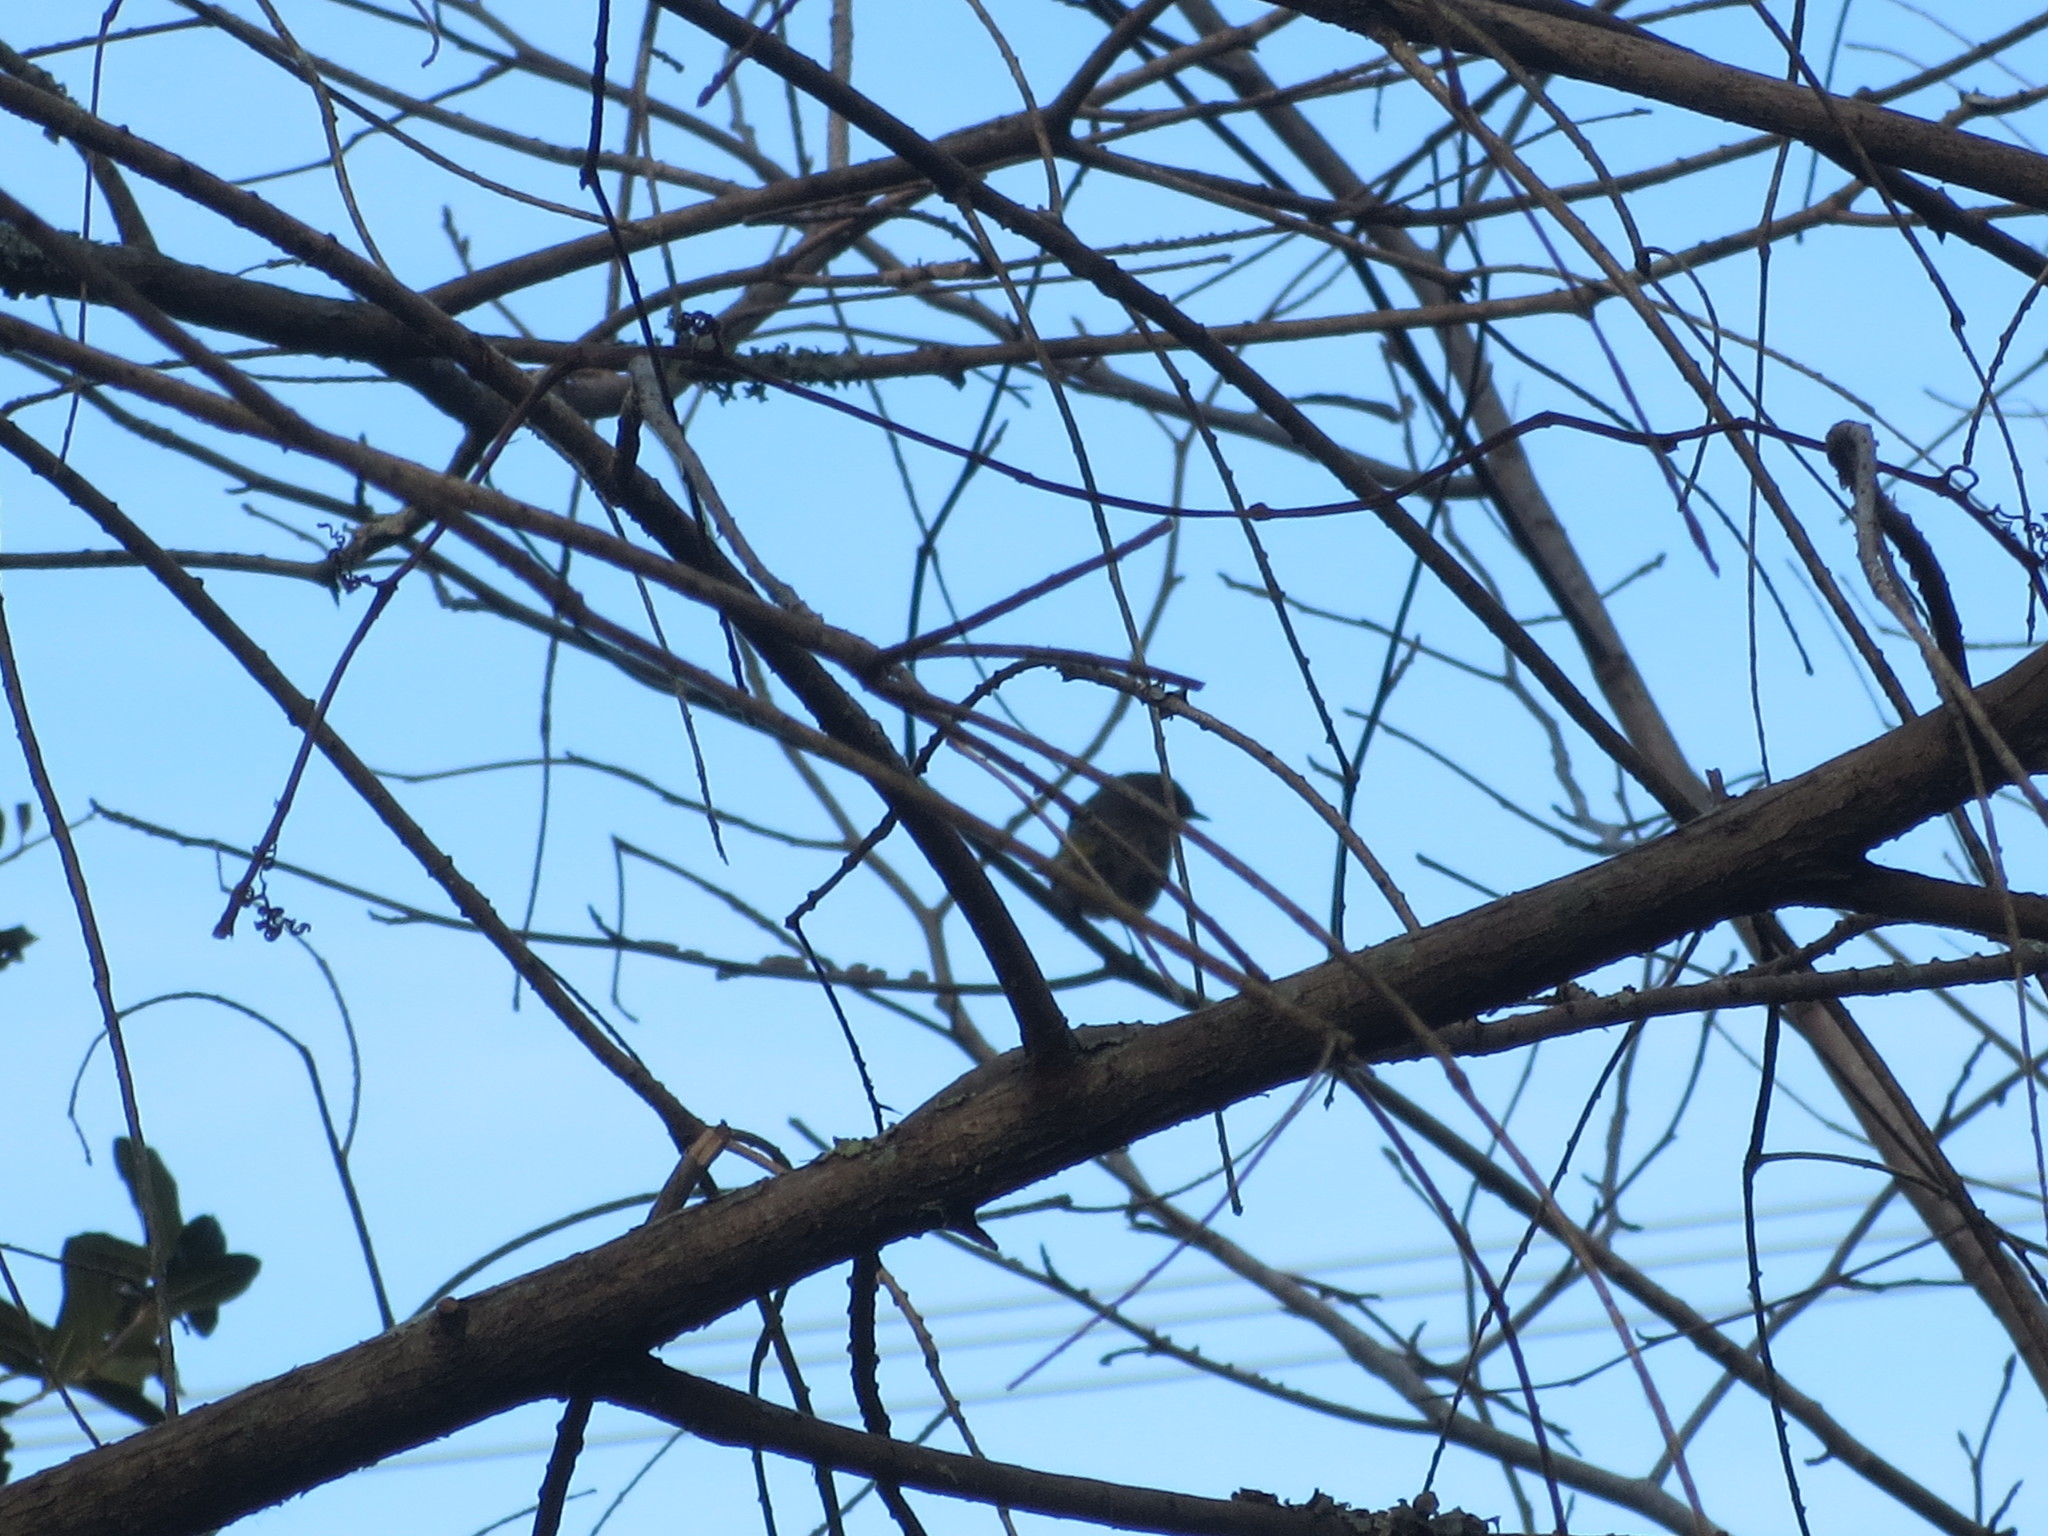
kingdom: Animalia
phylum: Chordata
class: Aves
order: Passeriformes
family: Parulidae
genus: Setophaga
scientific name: Setophaga coronata
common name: Myrtle warbler
